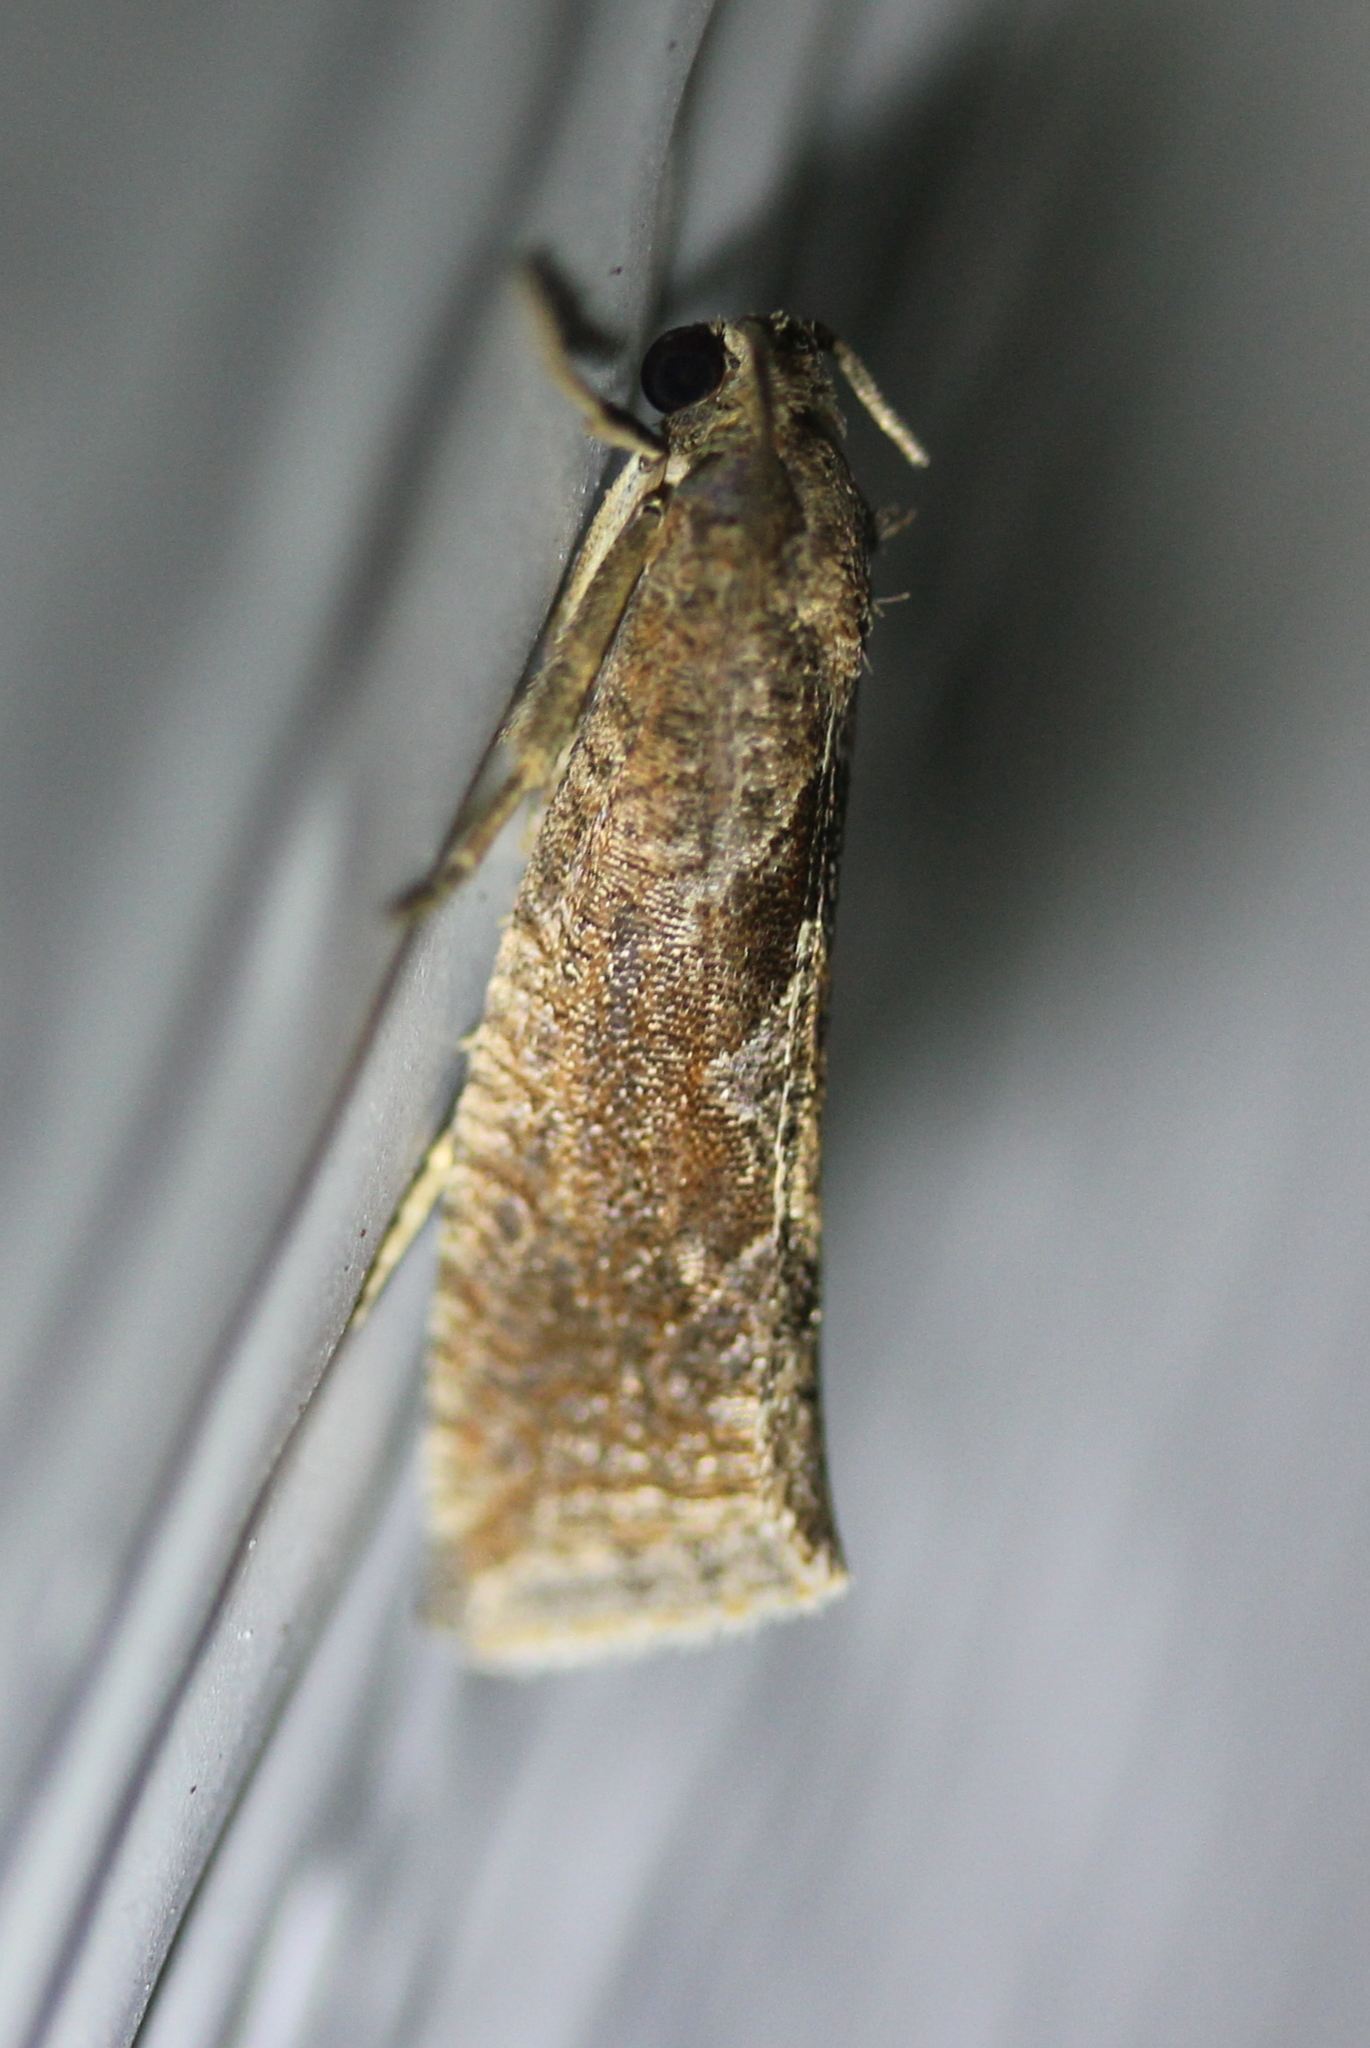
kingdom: Animalia
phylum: Arthropoda
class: Insecta
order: Lepidoptera
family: Tortricidae
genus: Pelochrista
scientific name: Pelochrista similiana
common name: Similar eucosma
